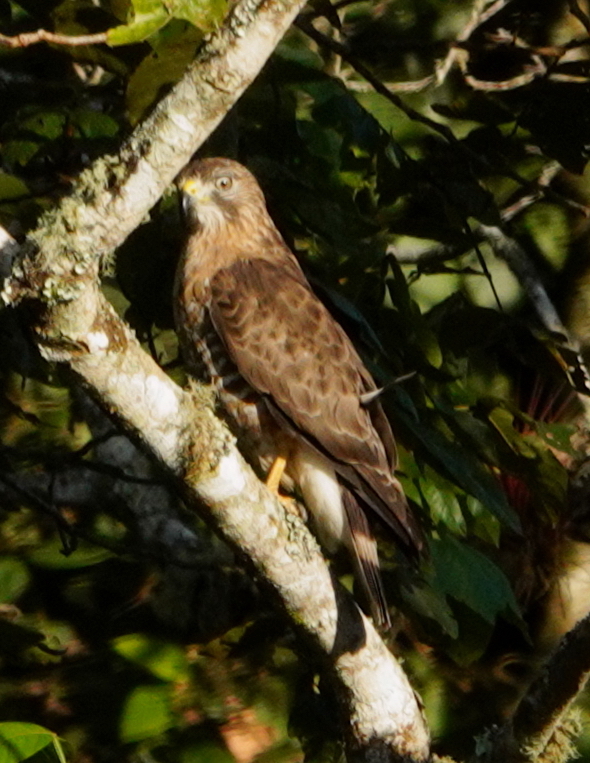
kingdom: Animalia
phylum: Chordata
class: Aves
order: Accipitriformes
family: Accipitridae
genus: Buteo
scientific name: Buteo platypterus
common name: Broad-winged hawk
